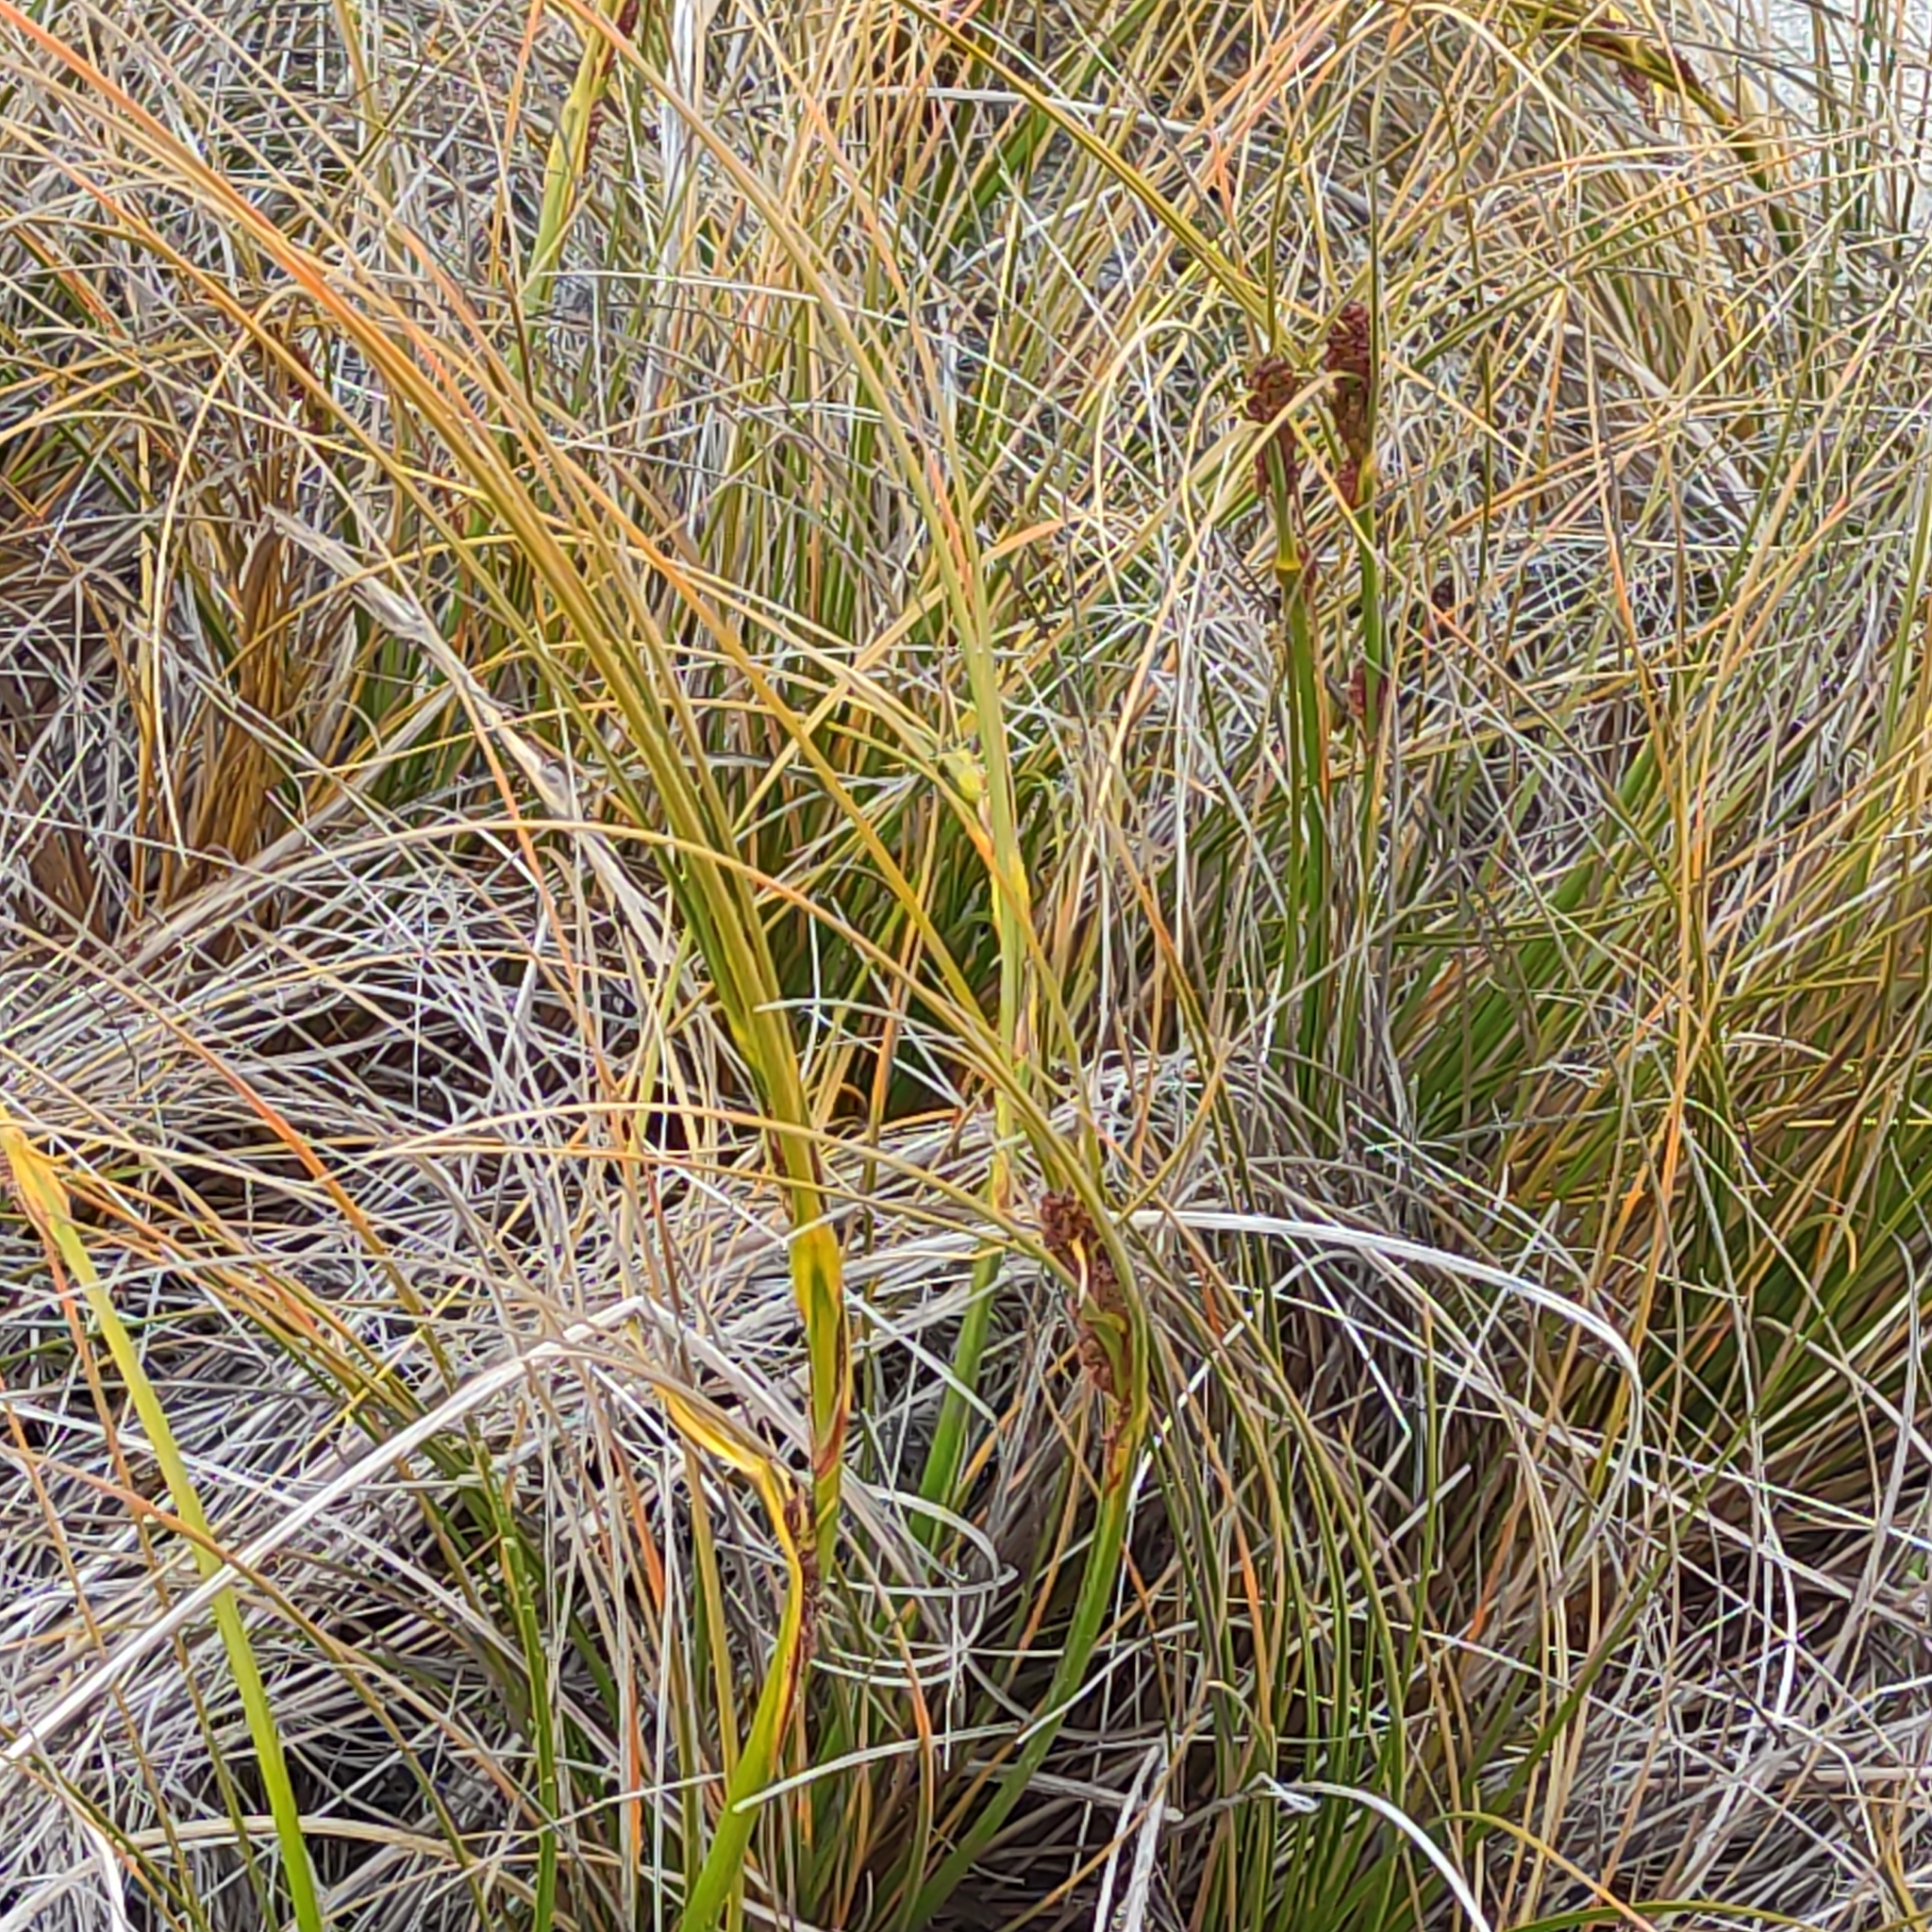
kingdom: Plantae
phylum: Tracheophyta
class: Liliopsida
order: Poales
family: Cyperaceae
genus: Ficinia
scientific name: Ficinia spiralis
